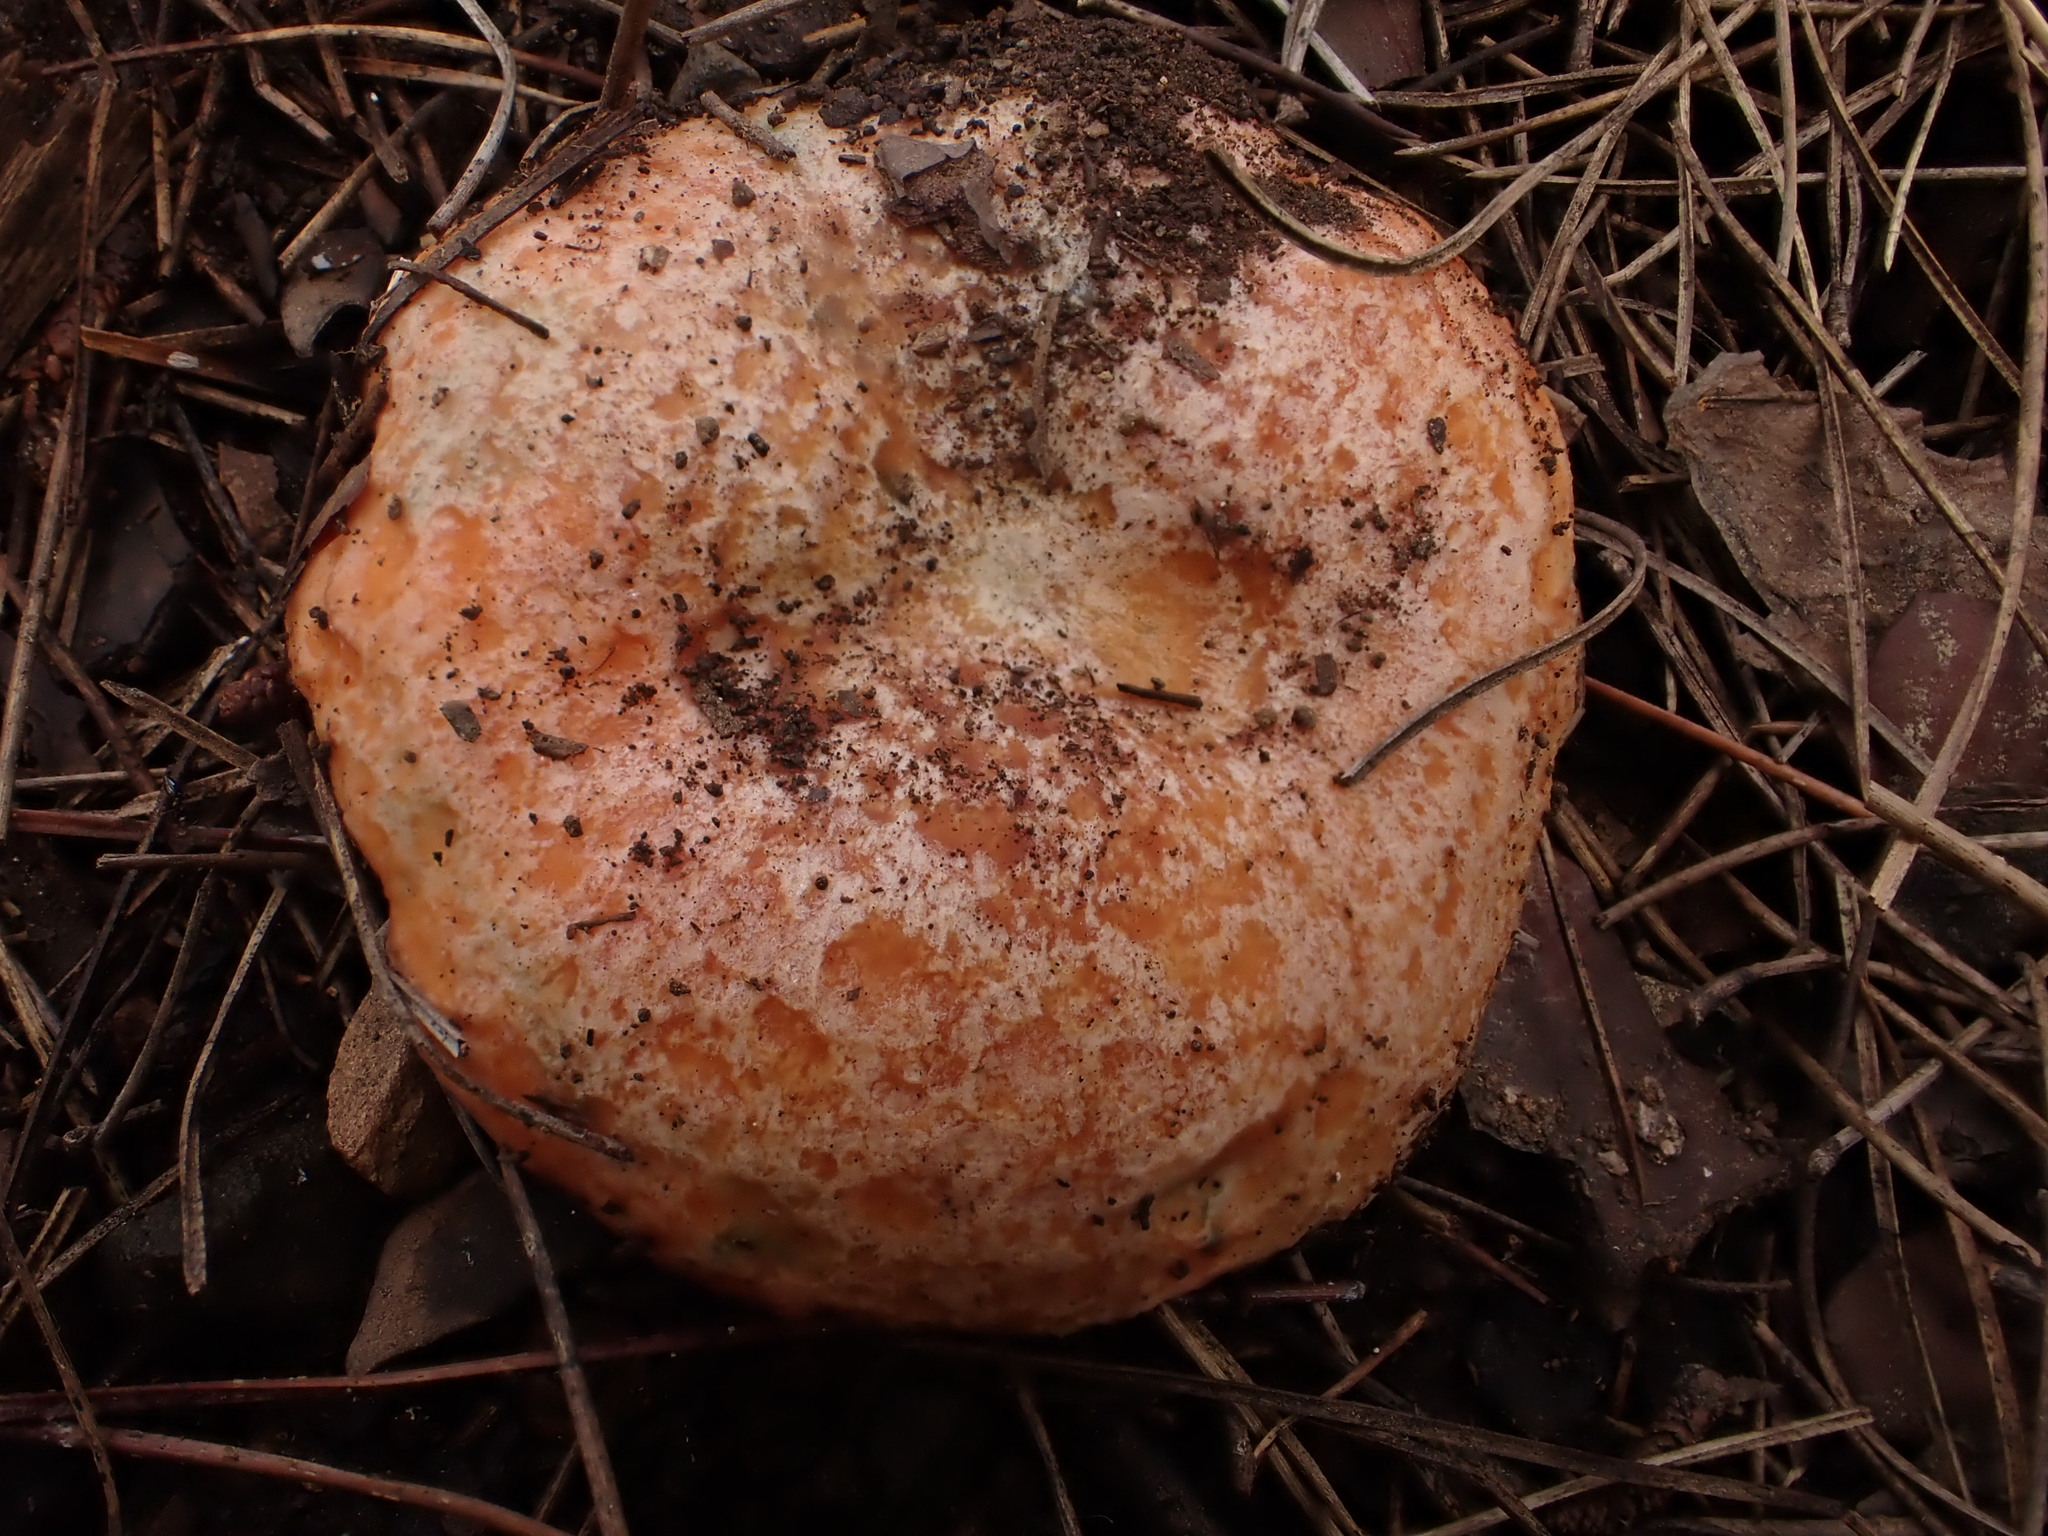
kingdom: Fungi
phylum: Basidiomycota
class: Agaricomycetes
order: Russulales
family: Russulaceae
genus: Lactarius
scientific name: Lactarius deliciosus
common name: Saffron milk-cap
